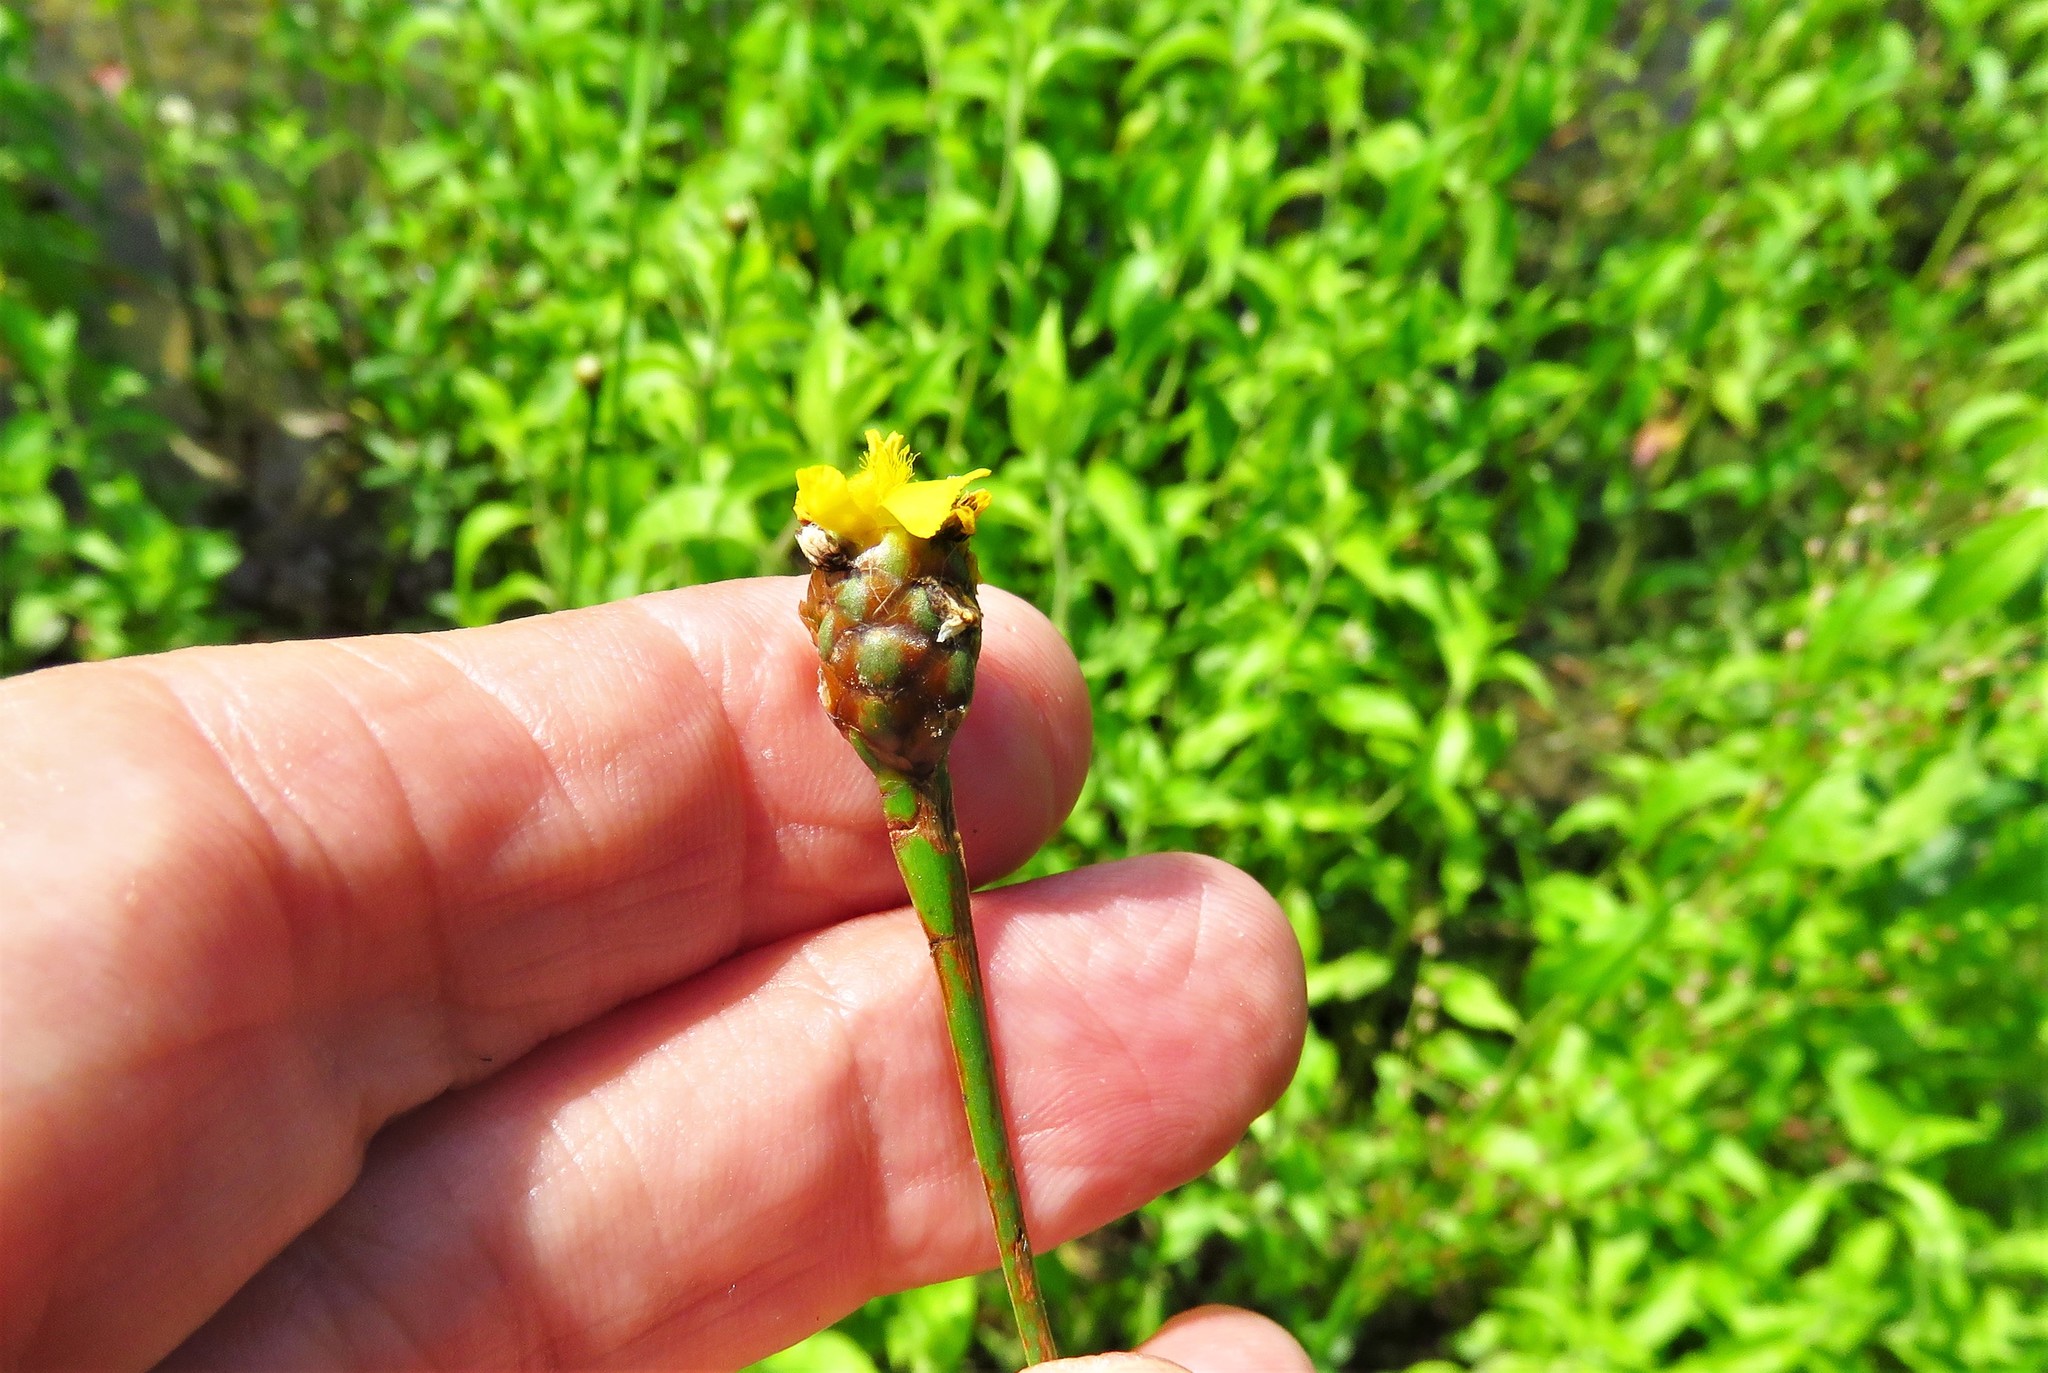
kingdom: Plantae
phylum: Tracheophyta
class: Liliopsida
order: Poales
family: Xyridaceae
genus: Xyris
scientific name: Xyris laxifolia
